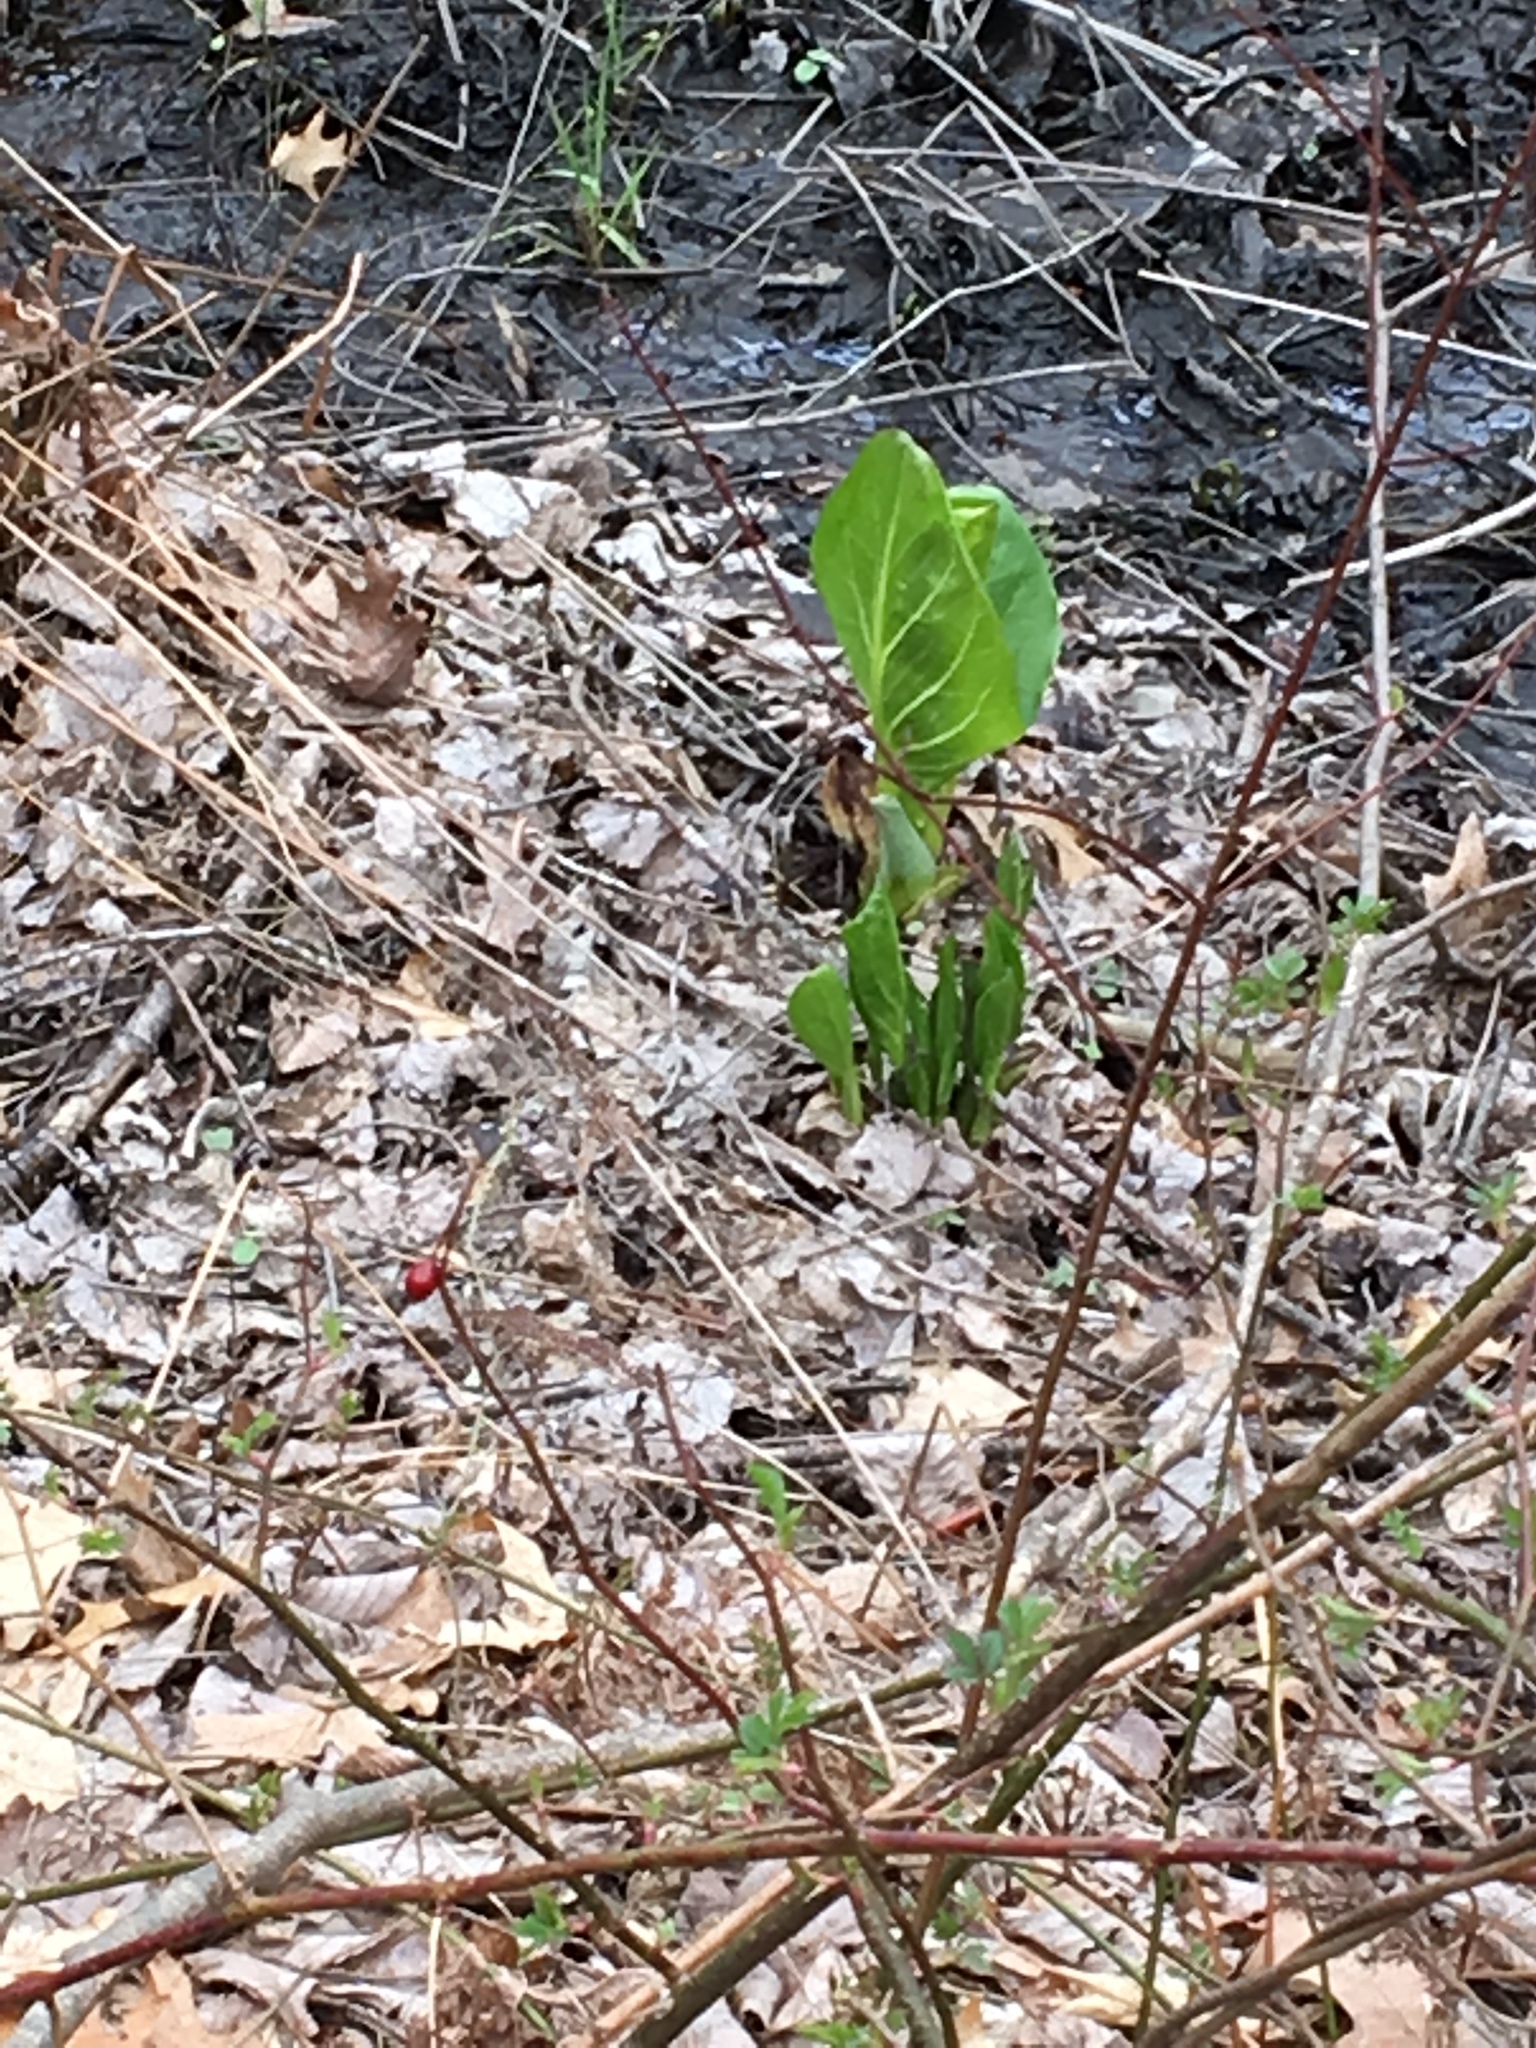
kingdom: Plantae
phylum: Tracheophyta
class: Liliopsida
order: Alismatales
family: Araceae
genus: Symplocarpus
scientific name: Symplocarpus foetidus
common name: Eastern skunk cabbage
